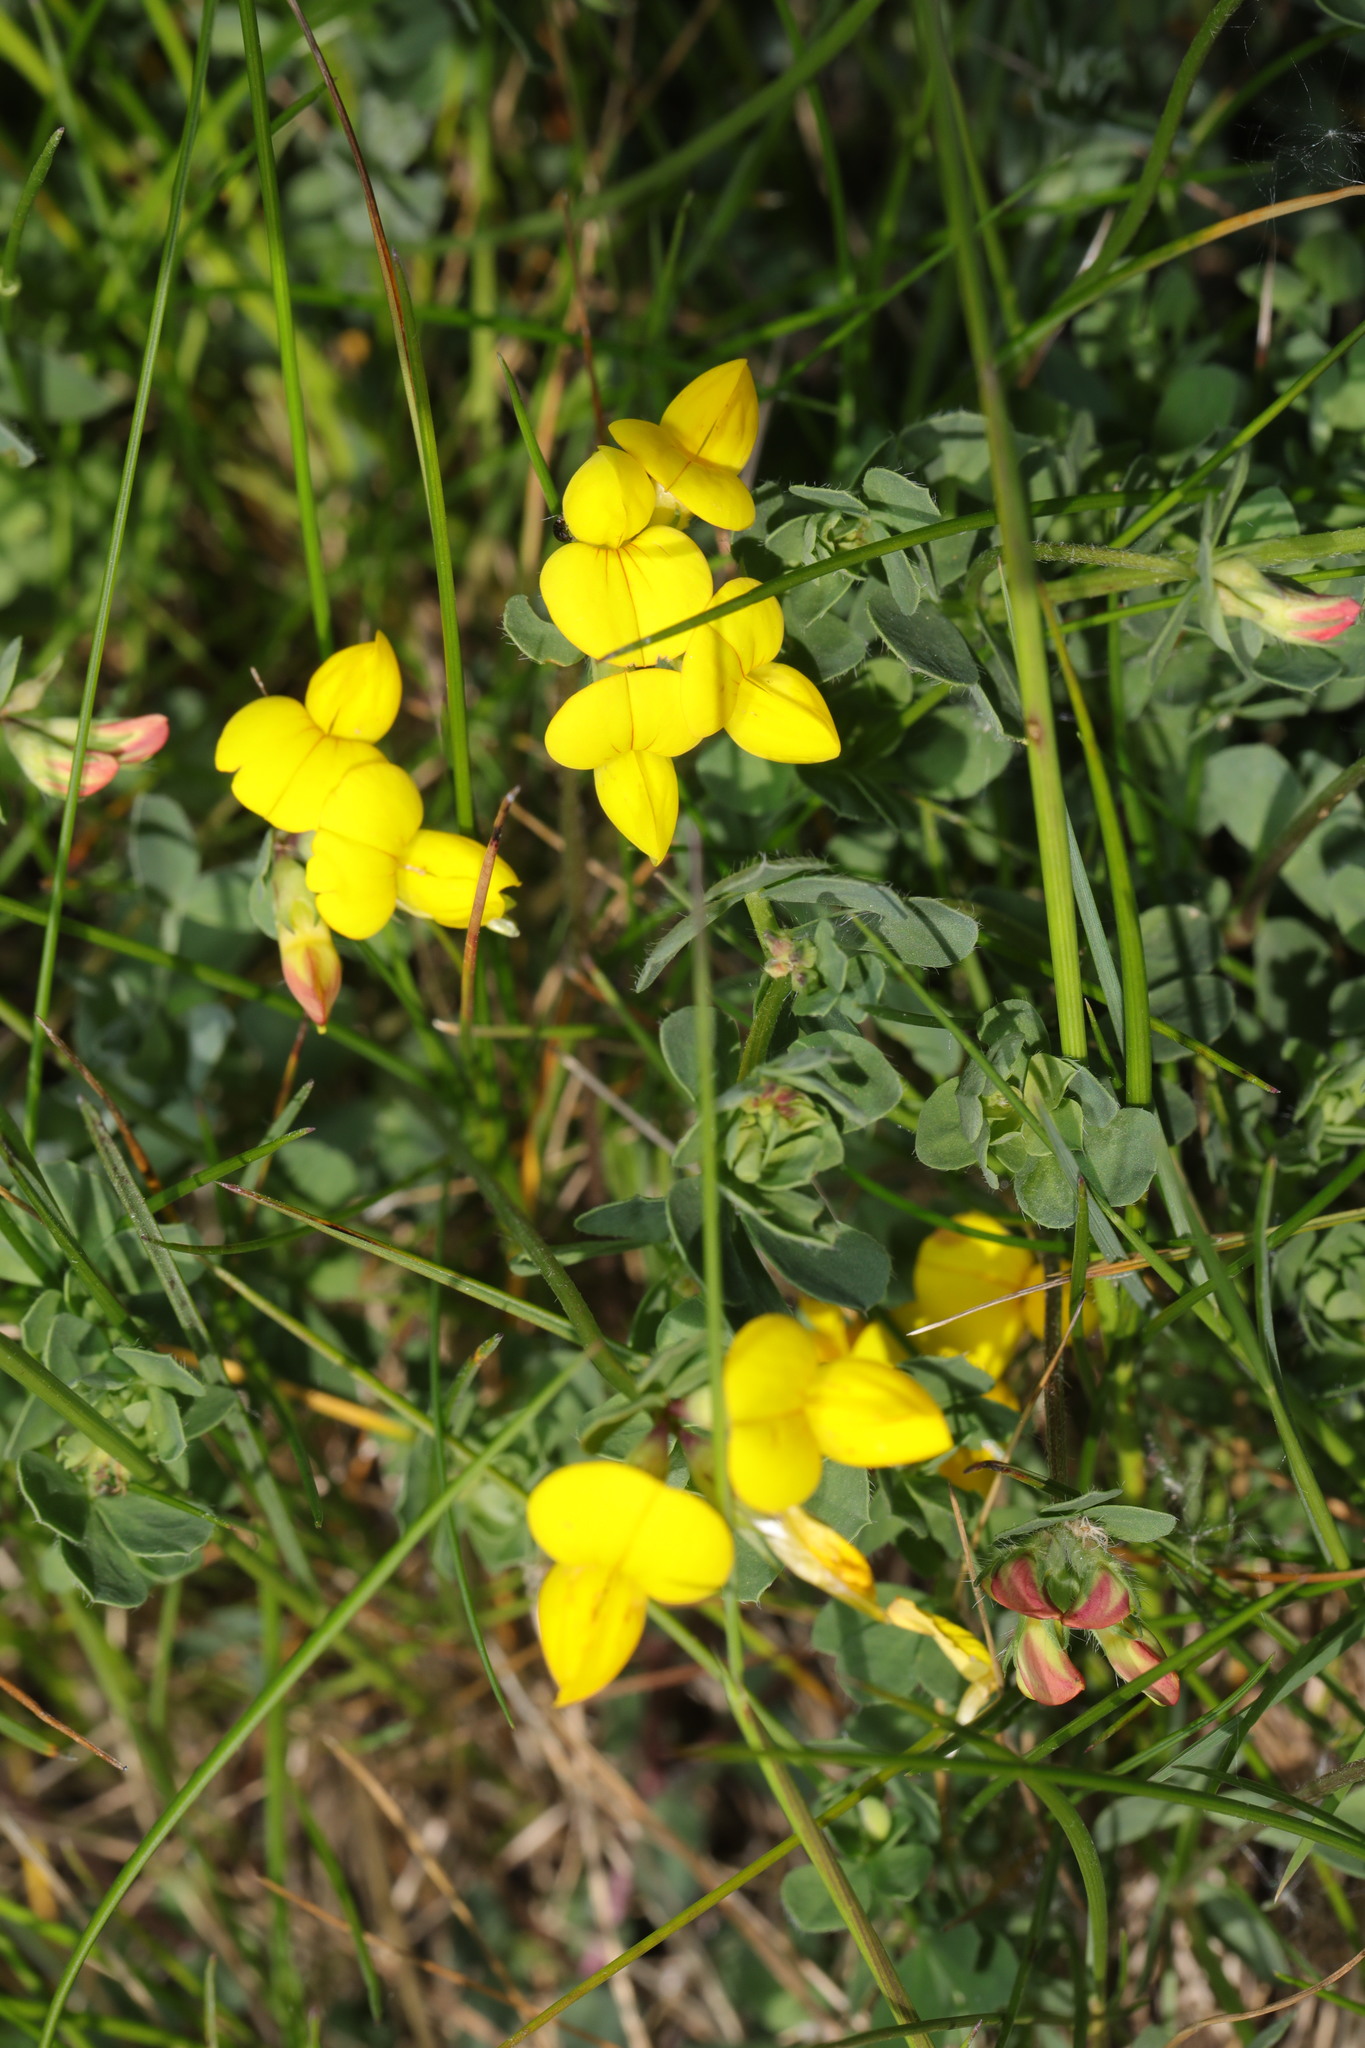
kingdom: Plantae
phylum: Tracheophyta
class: Magnoliopsida
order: Fabales
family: Fabaceae
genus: Lotus
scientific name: Lotus corniculatus
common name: Common bird's-foot-trefoil
